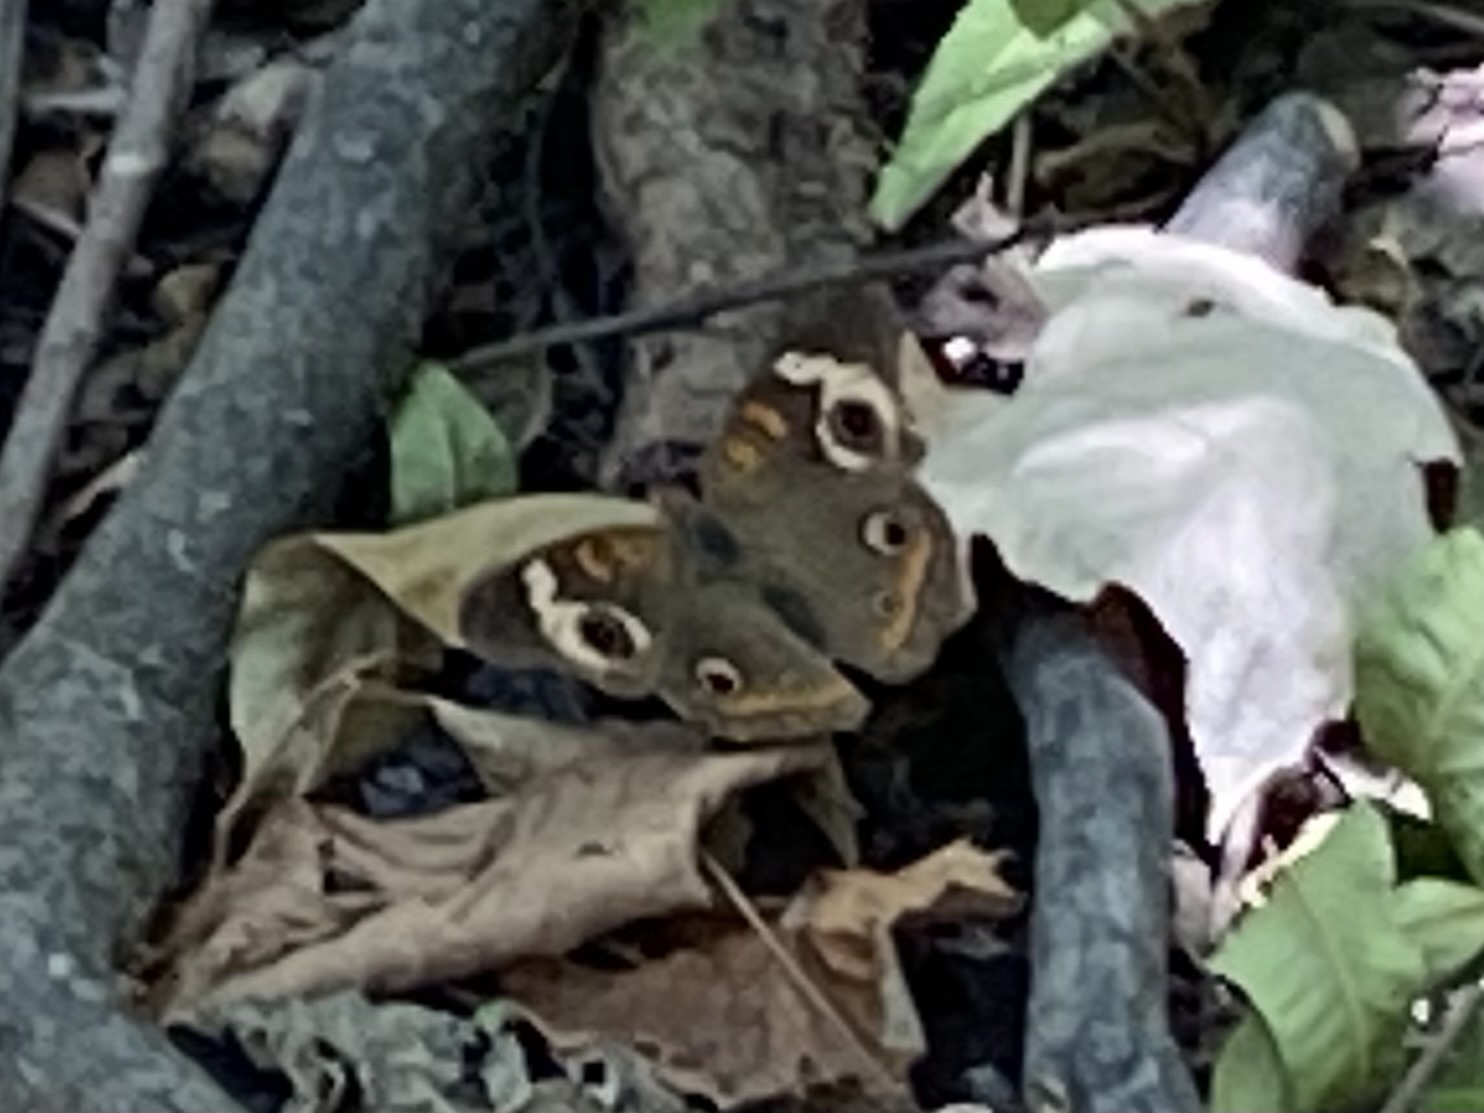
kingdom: Animalia
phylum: Arthropoda
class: Insecta
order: Lepidoptera
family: Nymphalidae
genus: Junonia
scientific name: Junonia coenia
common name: Common buckeye
